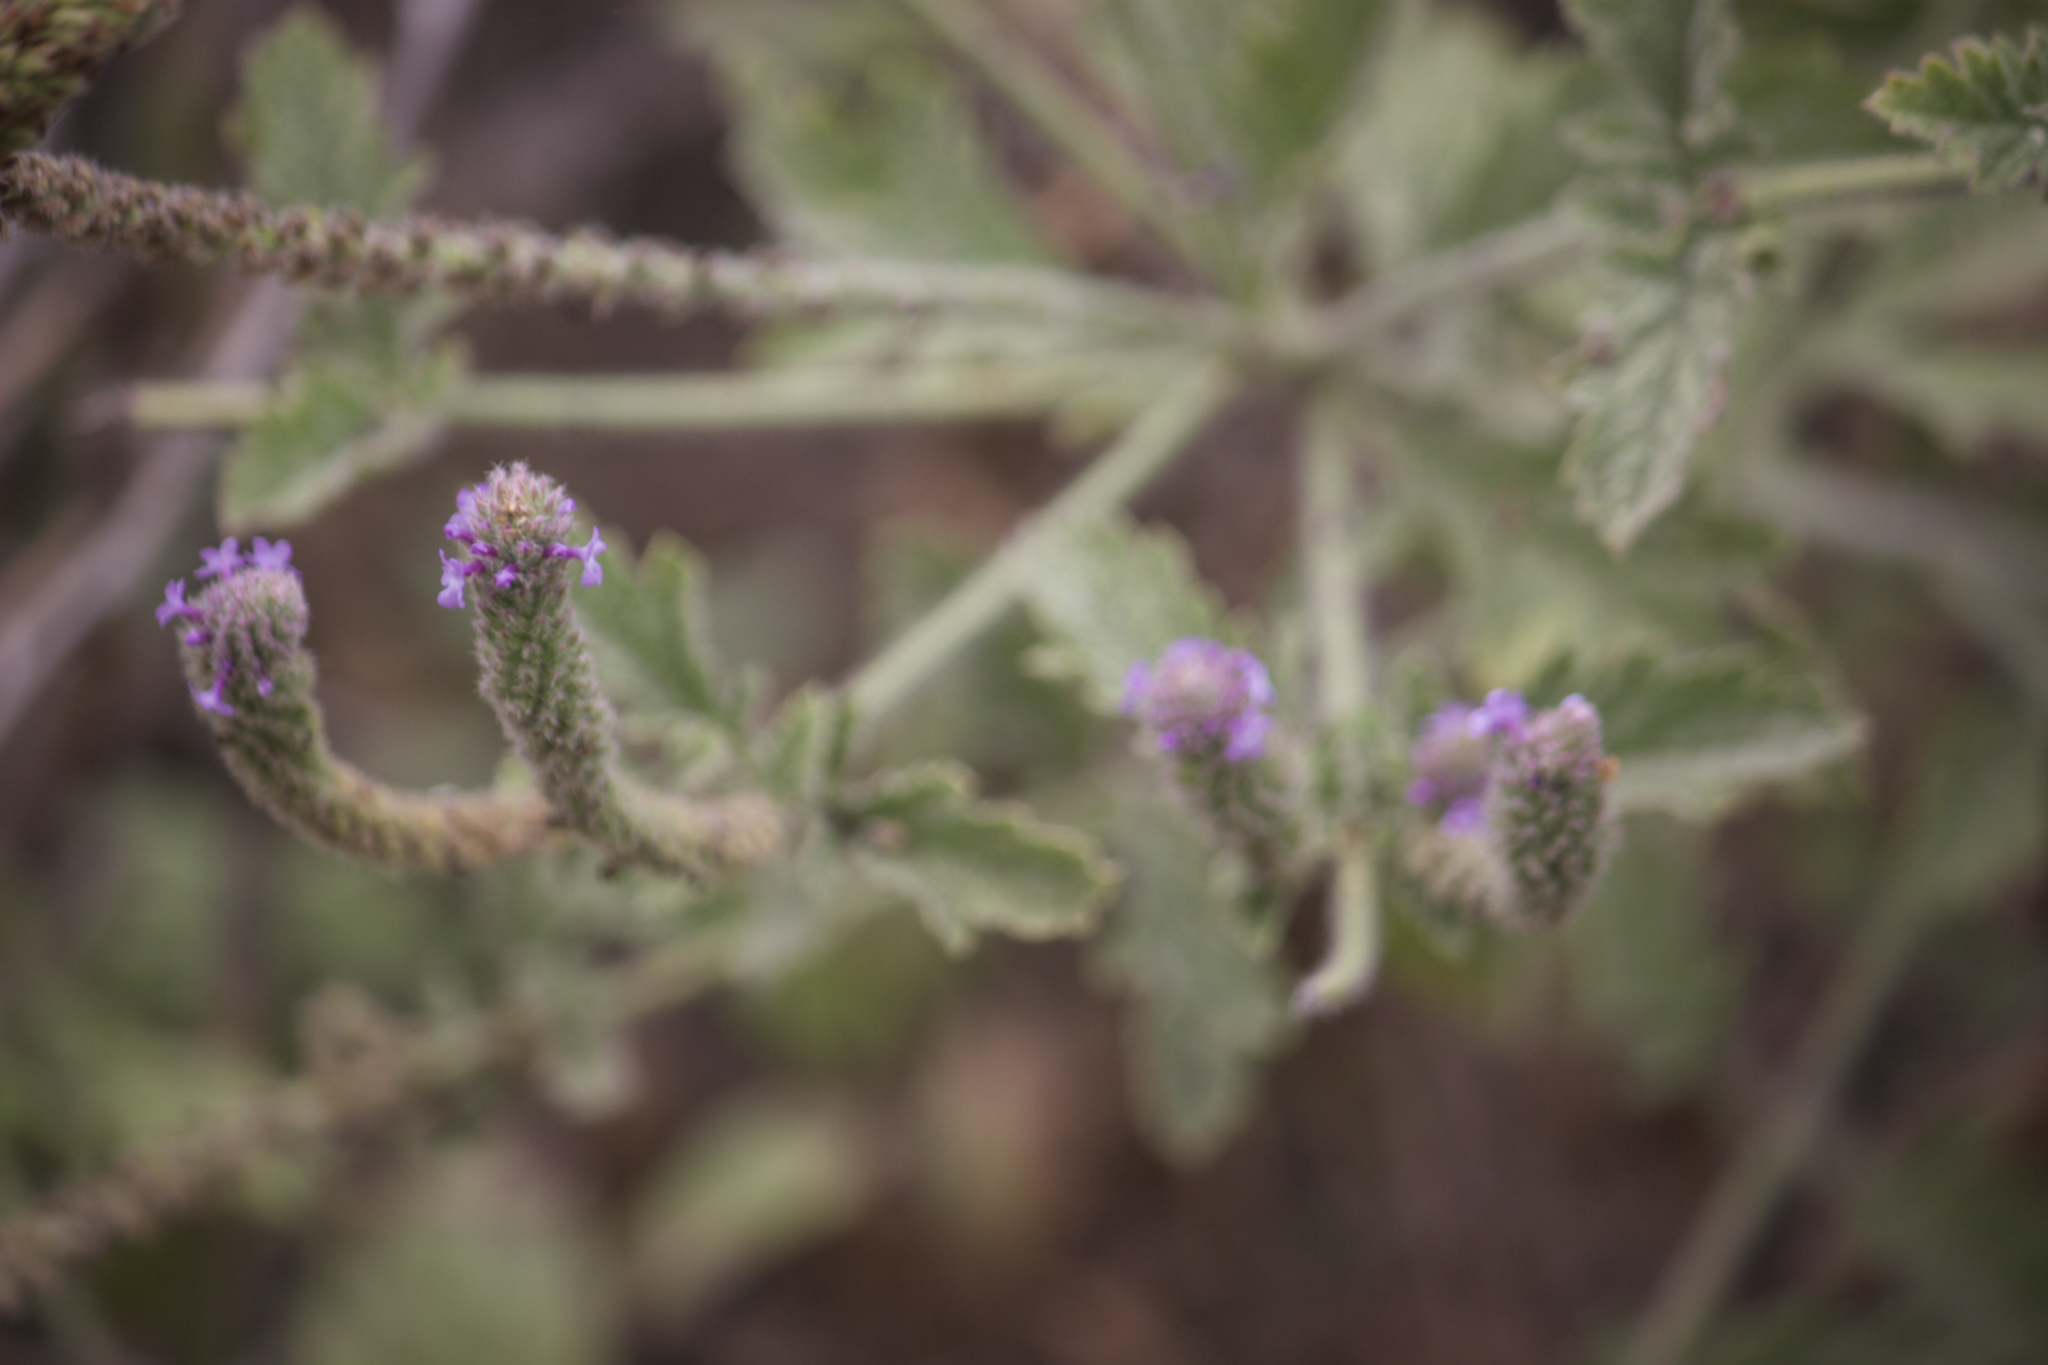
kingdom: Plantae
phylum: Tracheophyta
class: Magnoliopsida
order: Lamiales
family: Verbenaceae
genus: Verbena
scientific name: Verbena lasiostachys
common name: Vervain
